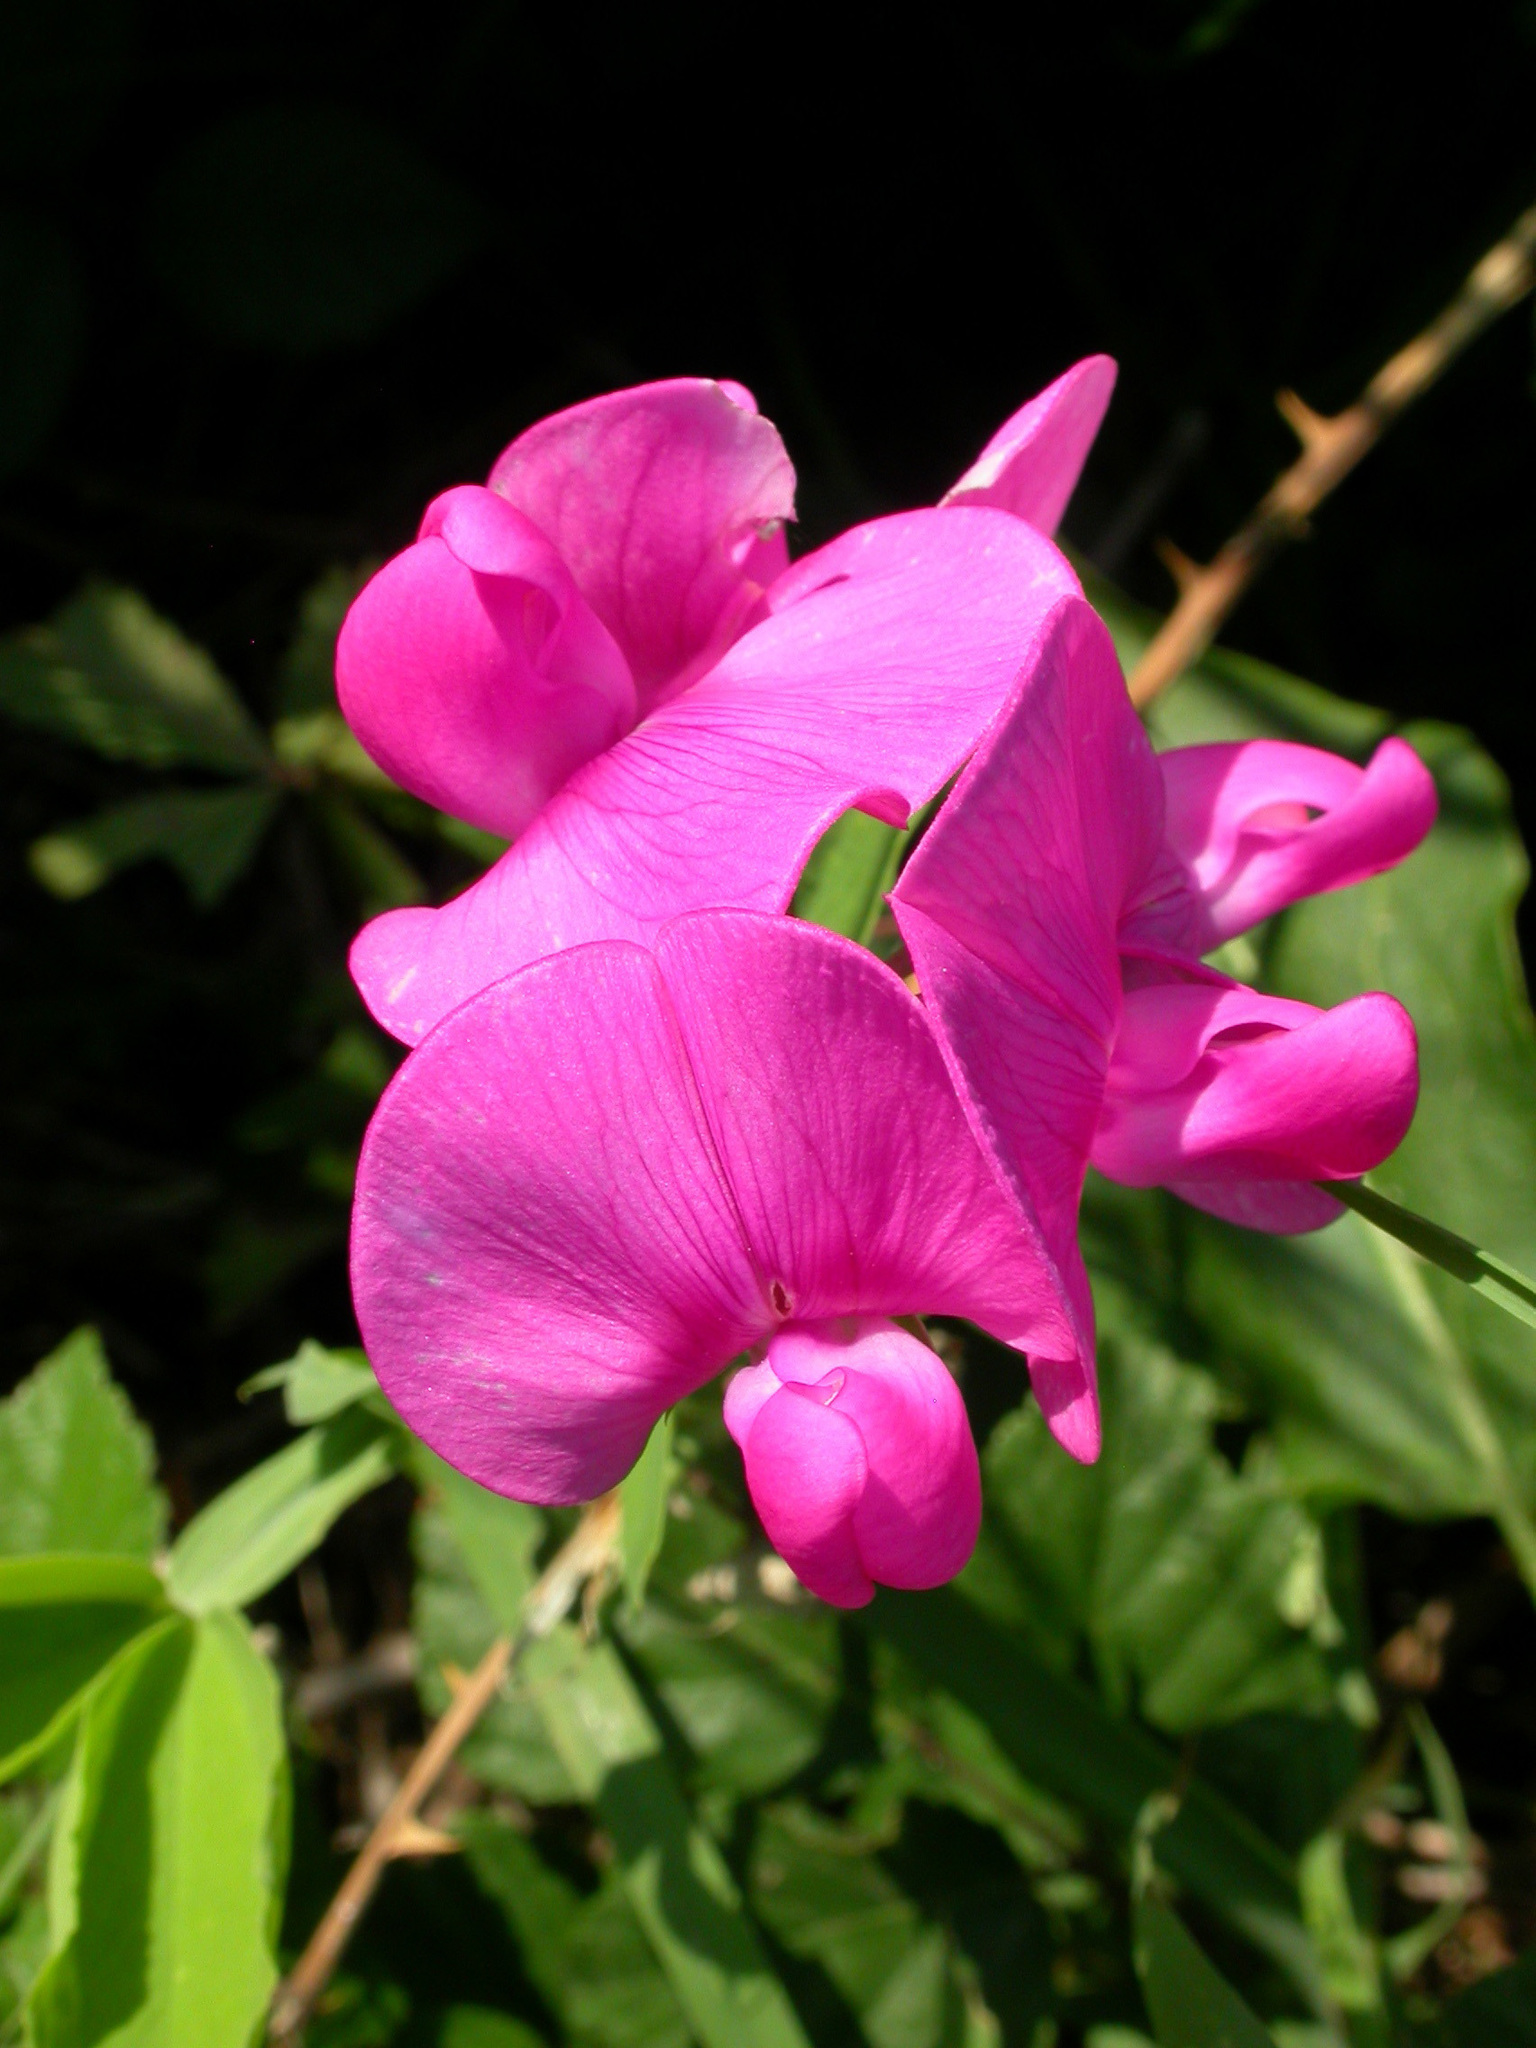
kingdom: Plantae
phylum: Tracheophyta
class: Magnoliopsida
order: Fabales
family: Fabaceae
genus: Lathyrus
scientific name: Lathyrus latifolius
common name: Perennial pea
